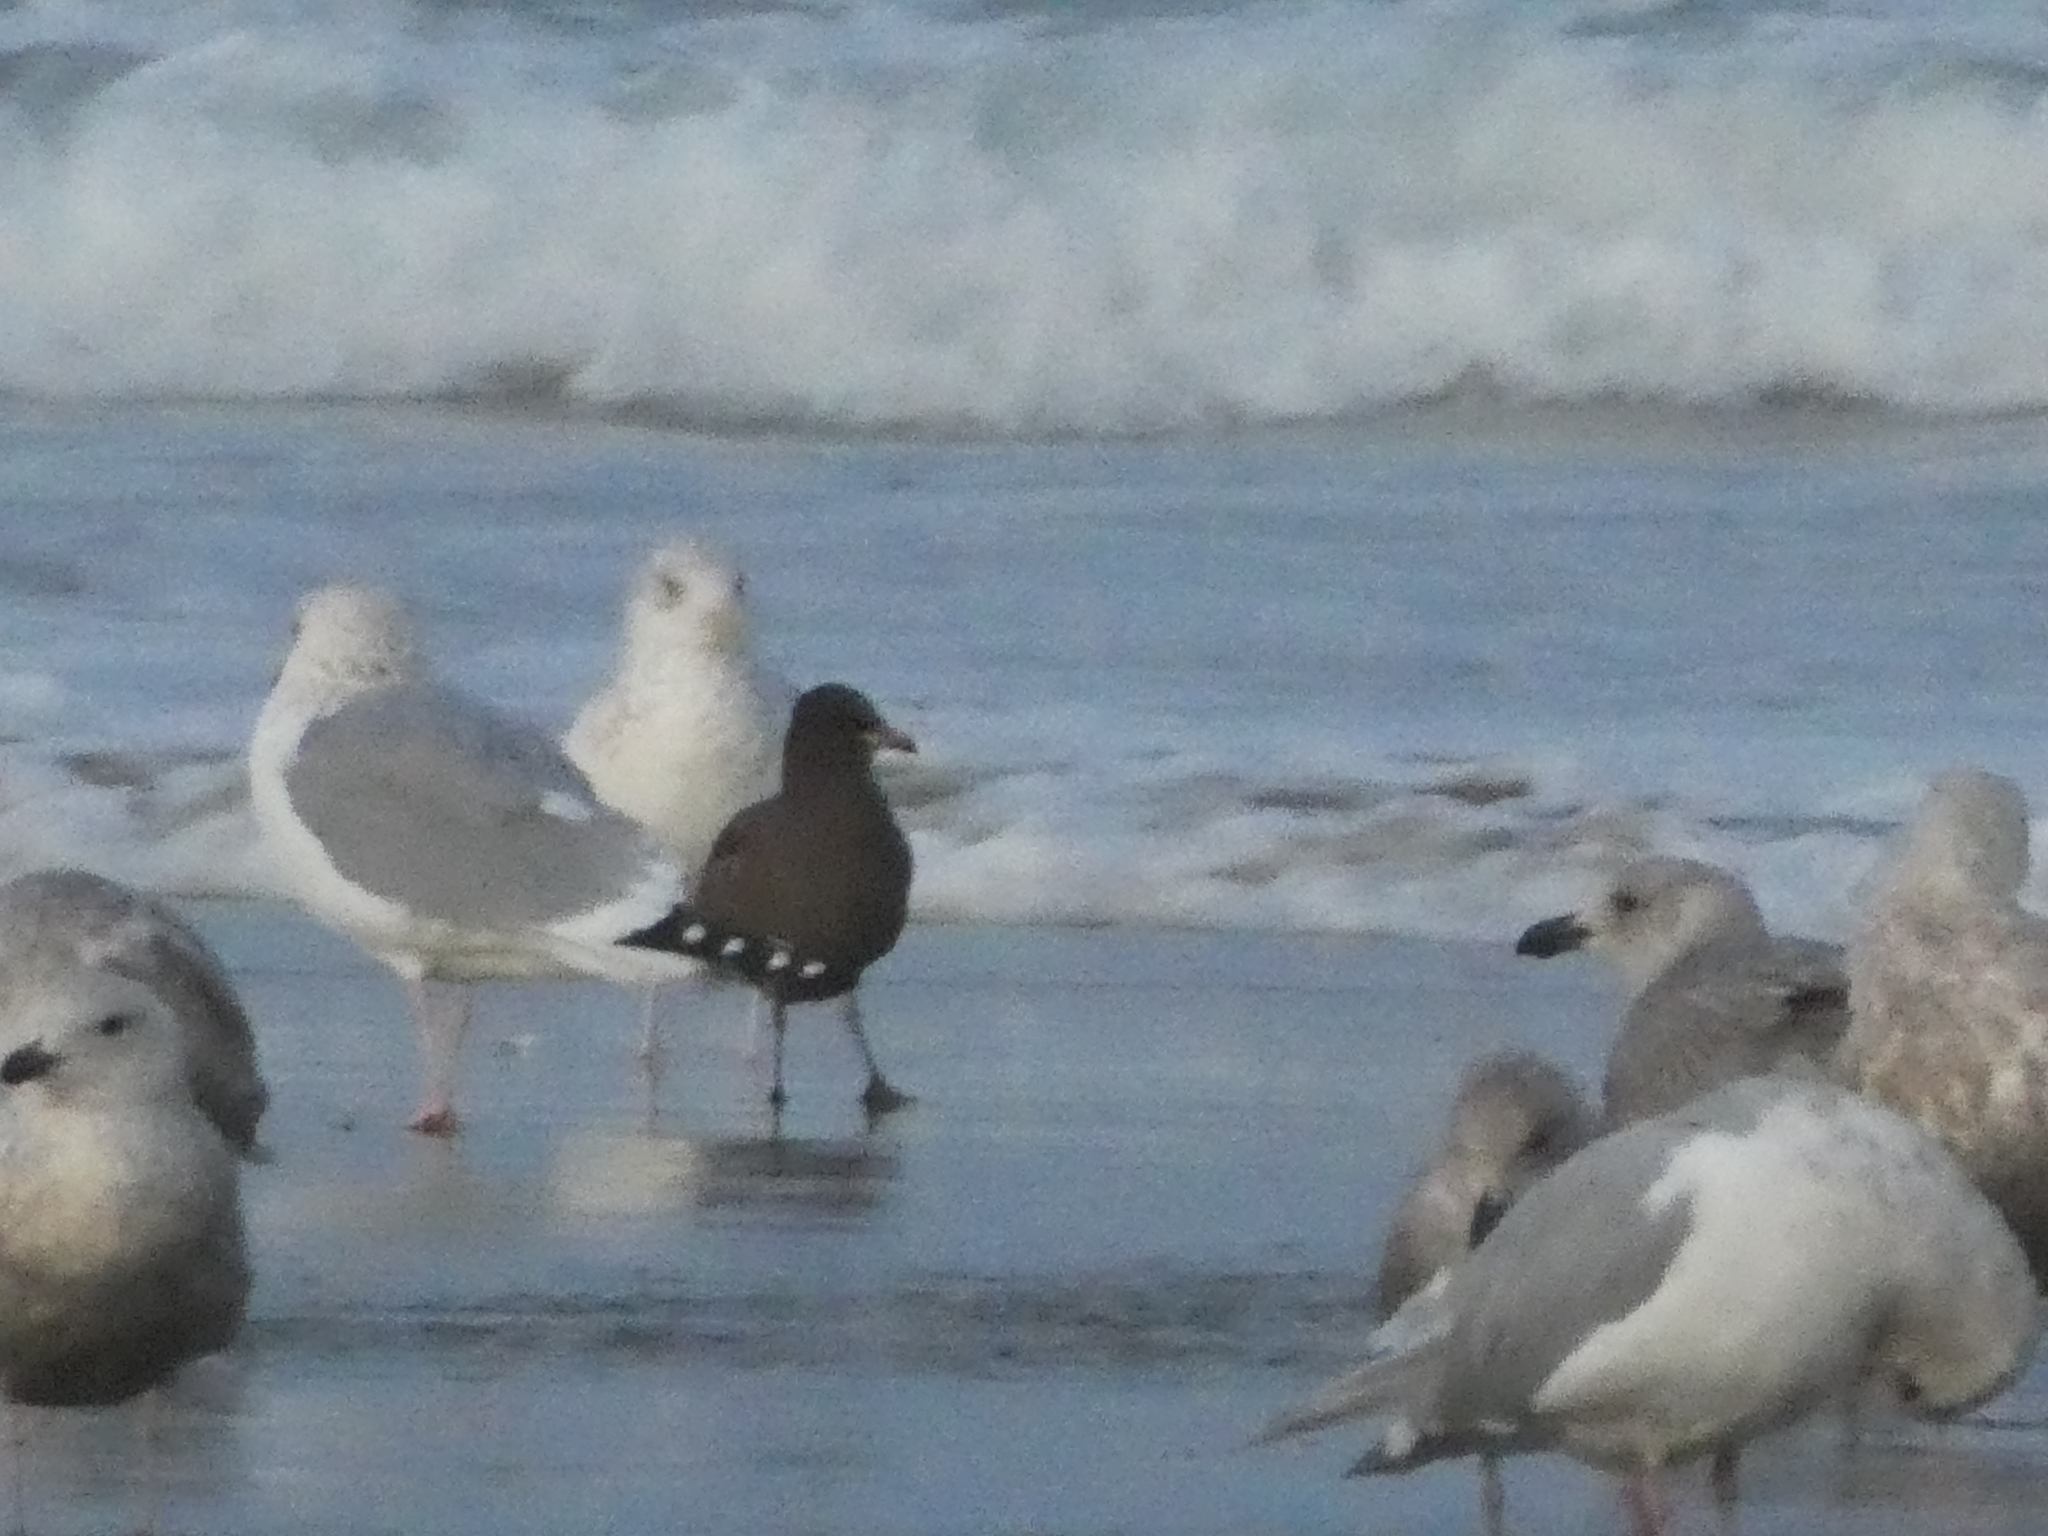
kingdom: Animalia
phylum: Chordata
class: Aves
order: Charadriiformes
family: Laridae
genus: Larus
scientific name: Larus heermanni
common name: Heermann's gull
